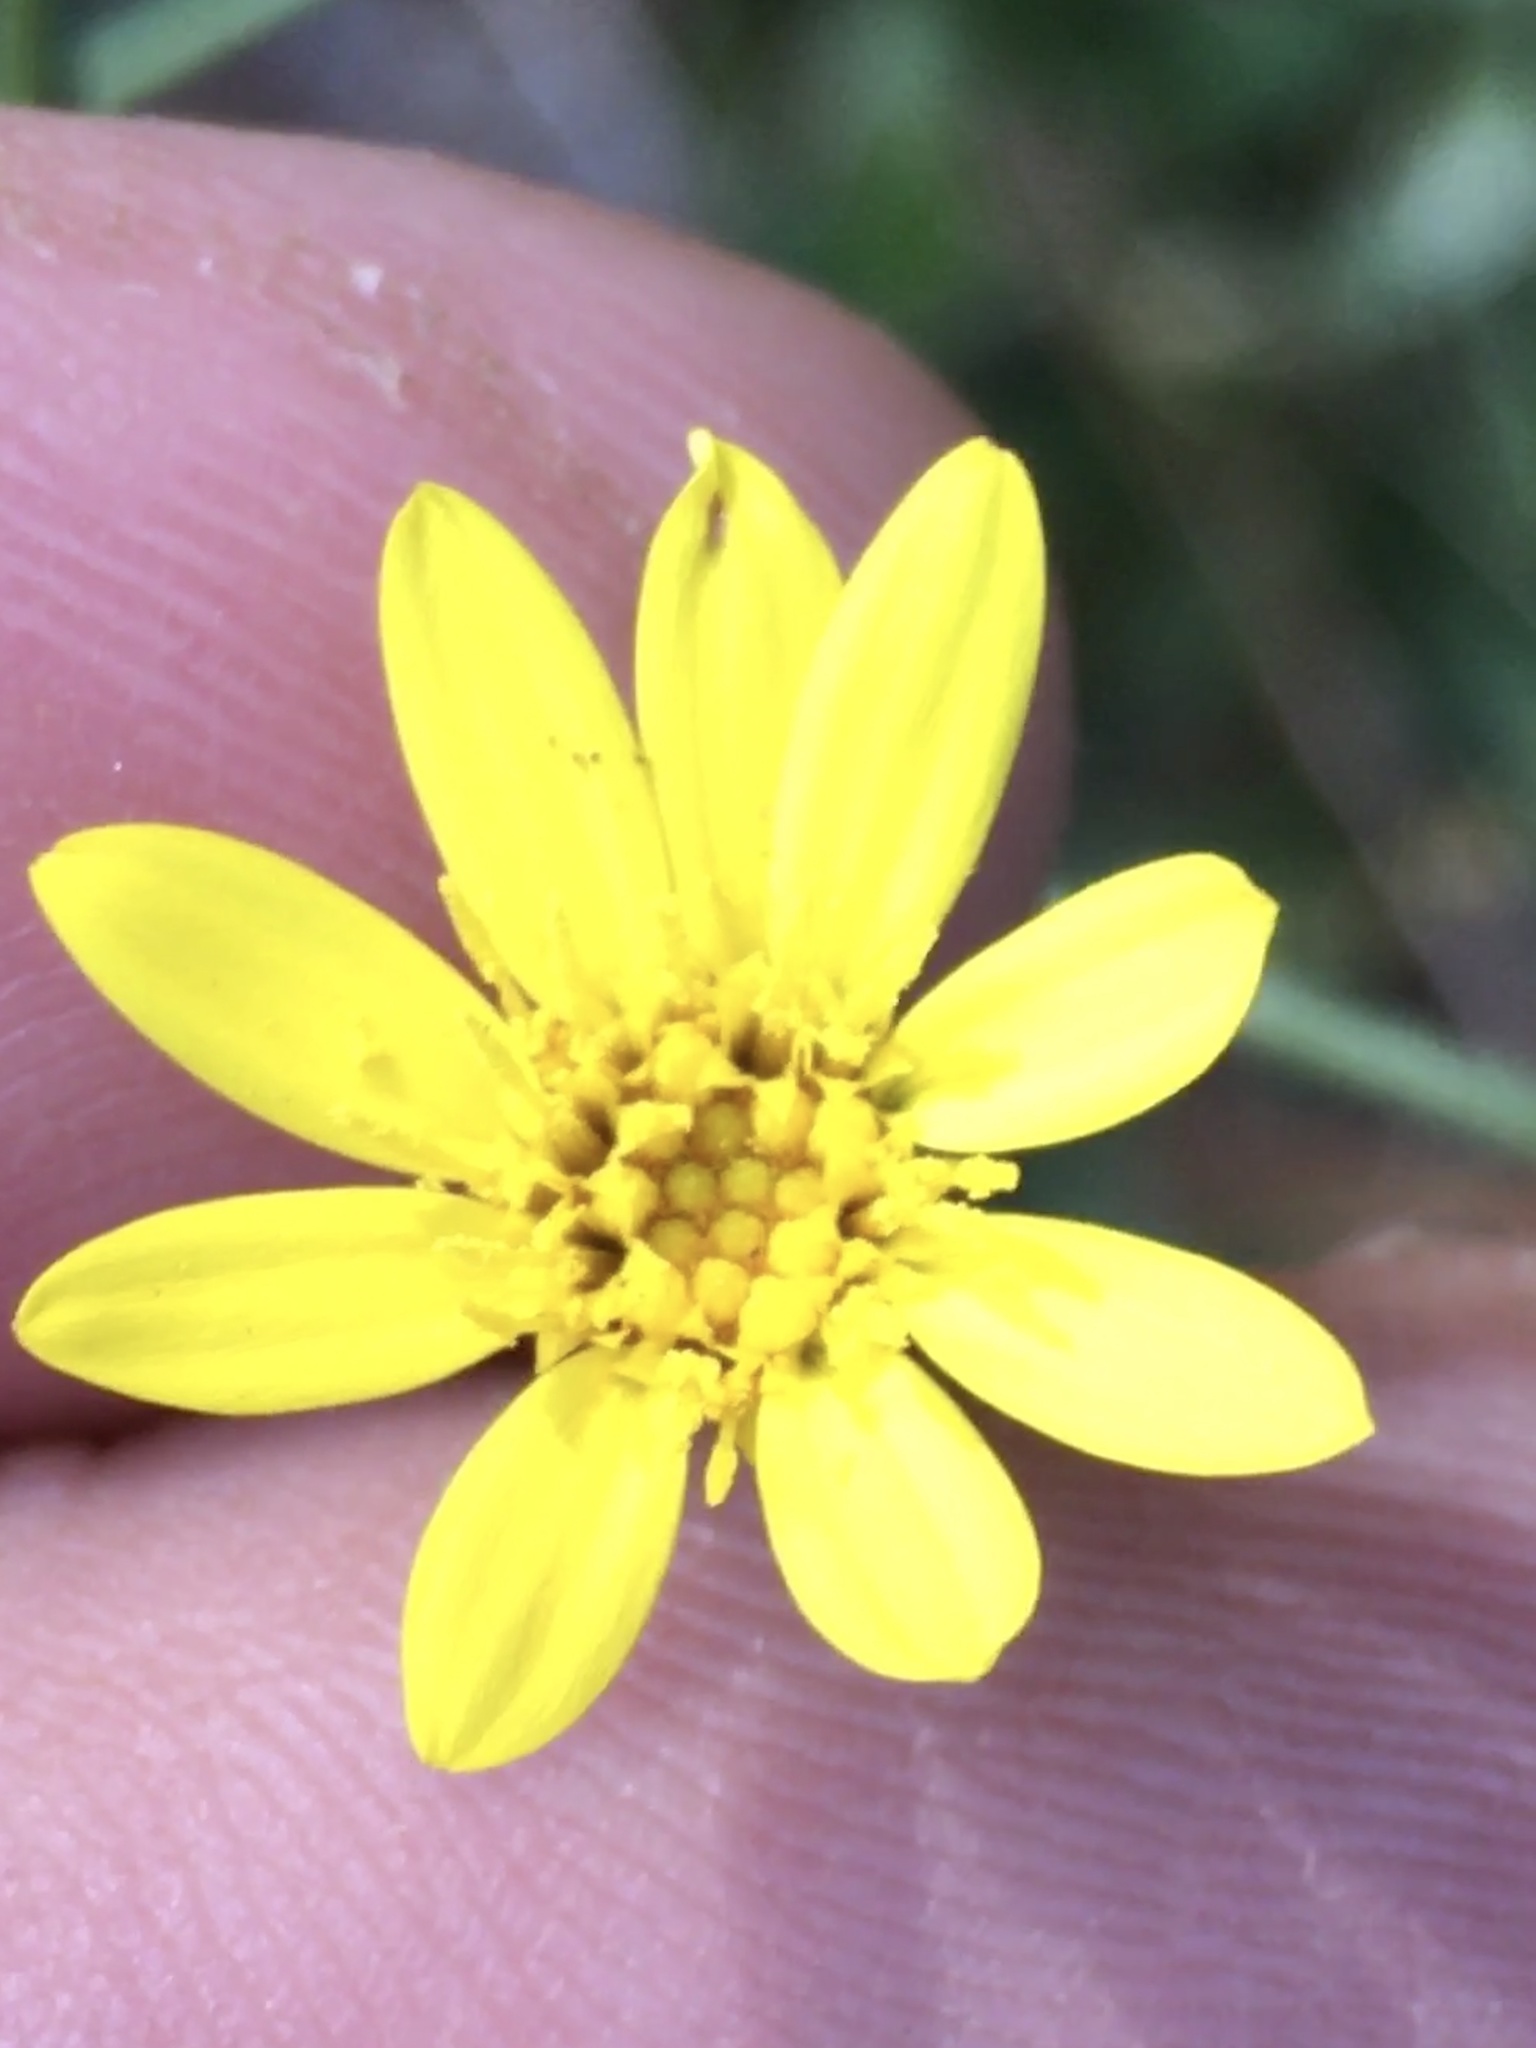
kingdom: Plantae
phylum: Tracheophyta
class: Magnoliopsida
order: Asterales
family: Asteraceae
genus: Pityopsis
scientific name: Pityopsis aspera
